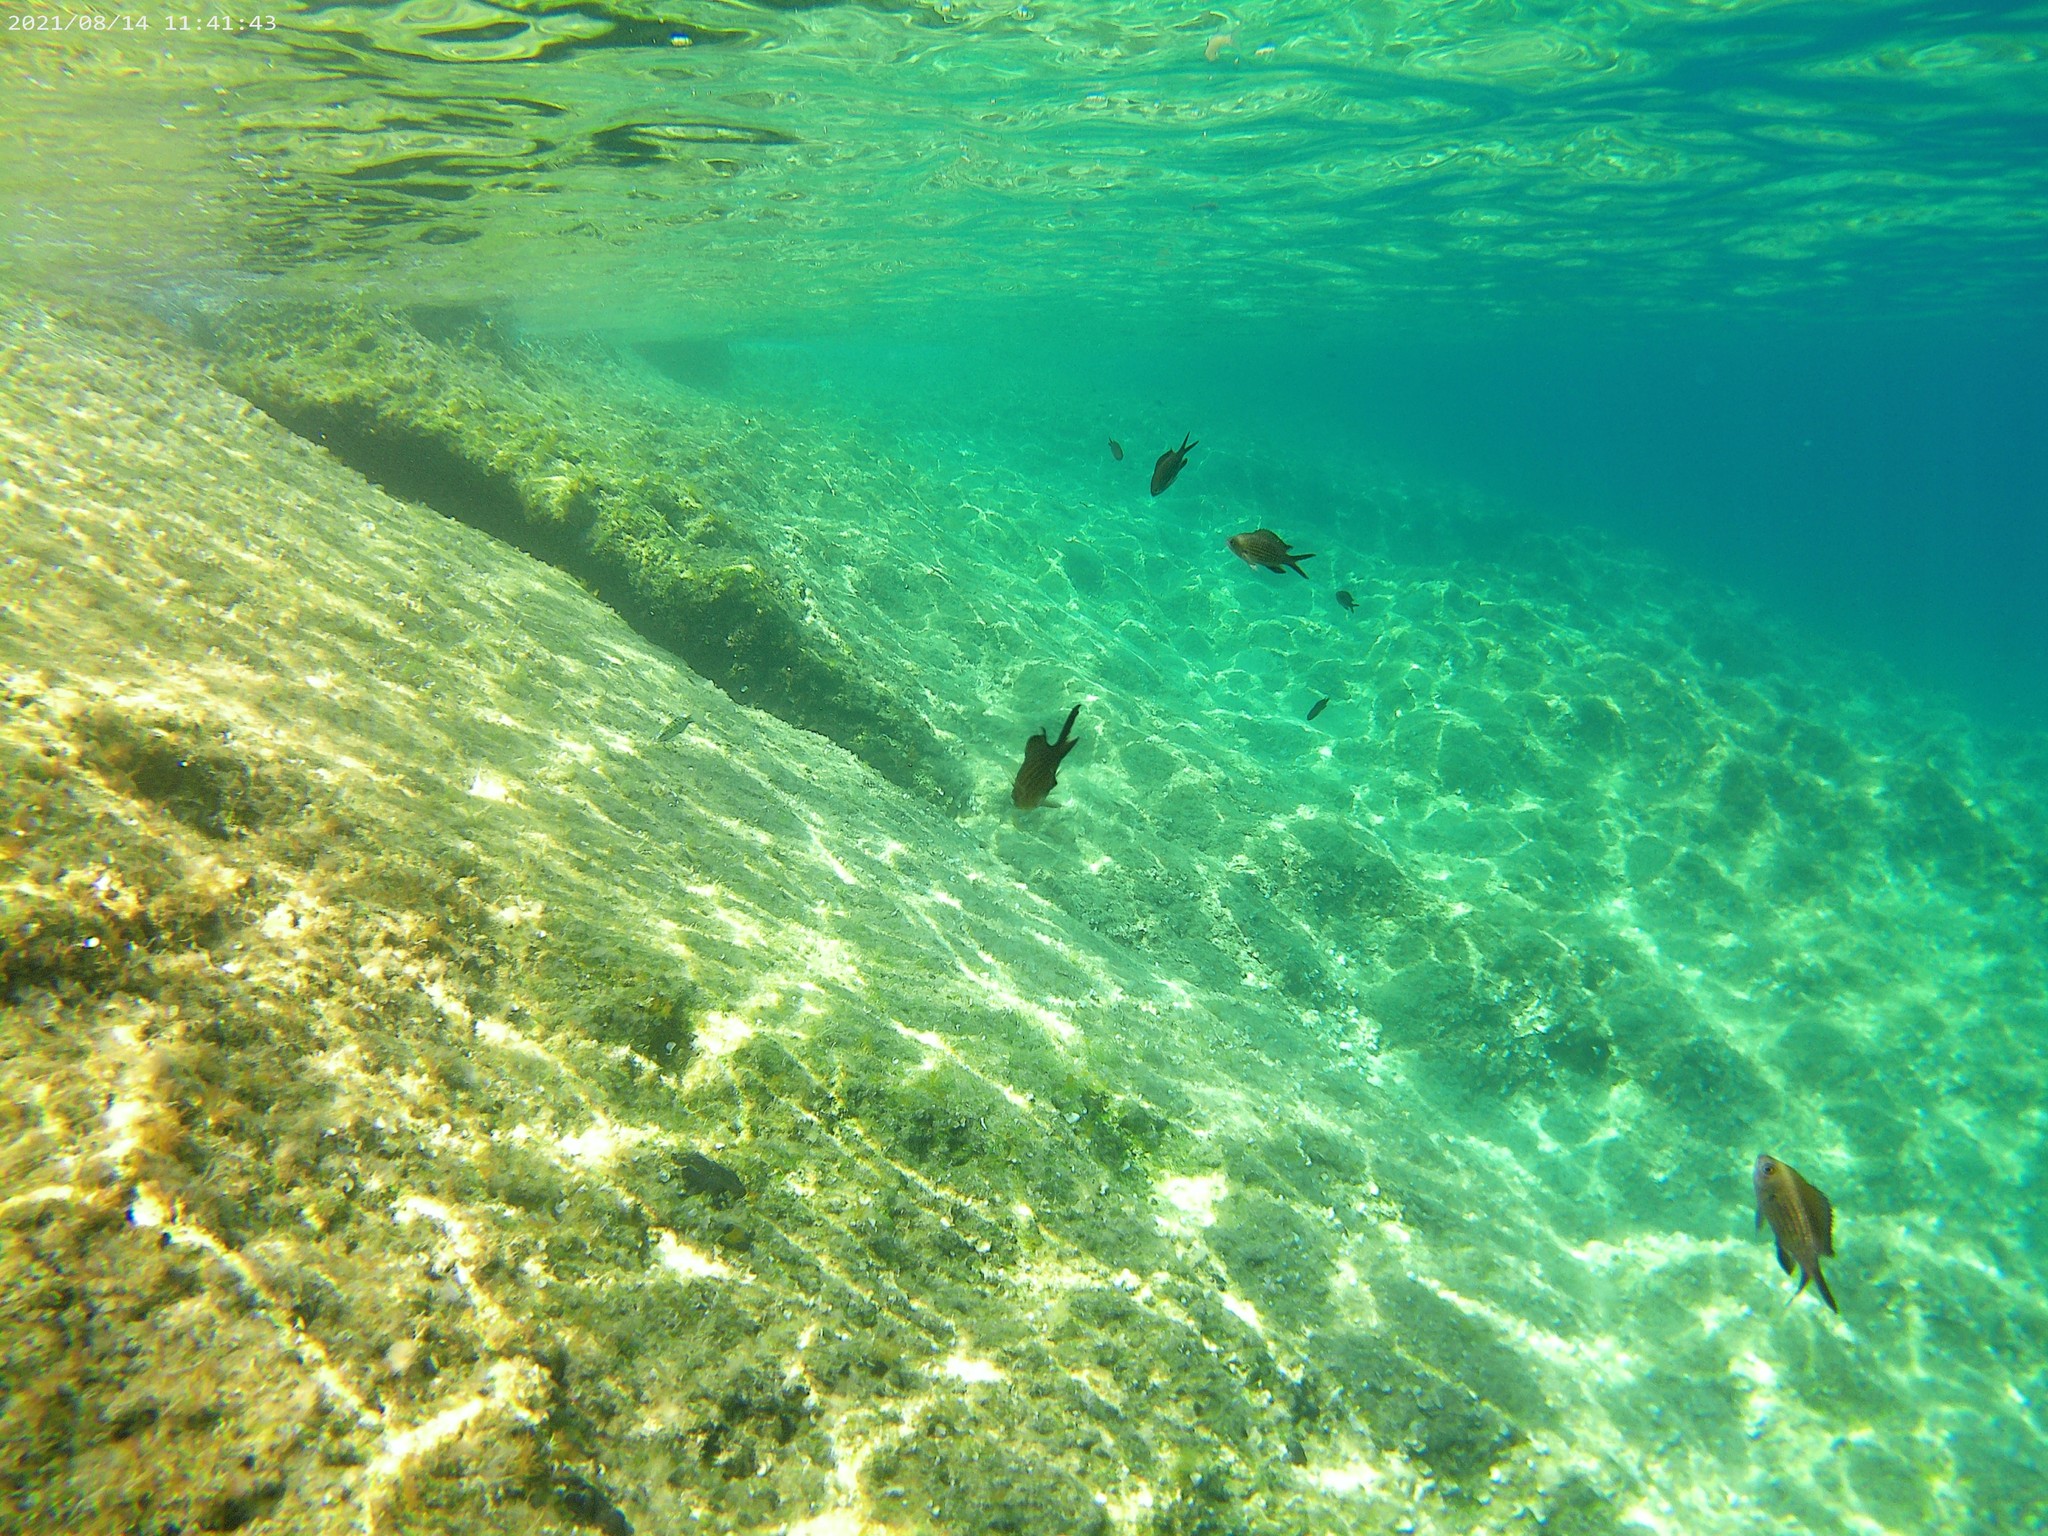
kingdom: Animalia
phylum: Chordata
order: Perciformes
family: Pomacentridae
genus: Chromis
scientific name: Chromis chromis
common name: Damselfish
